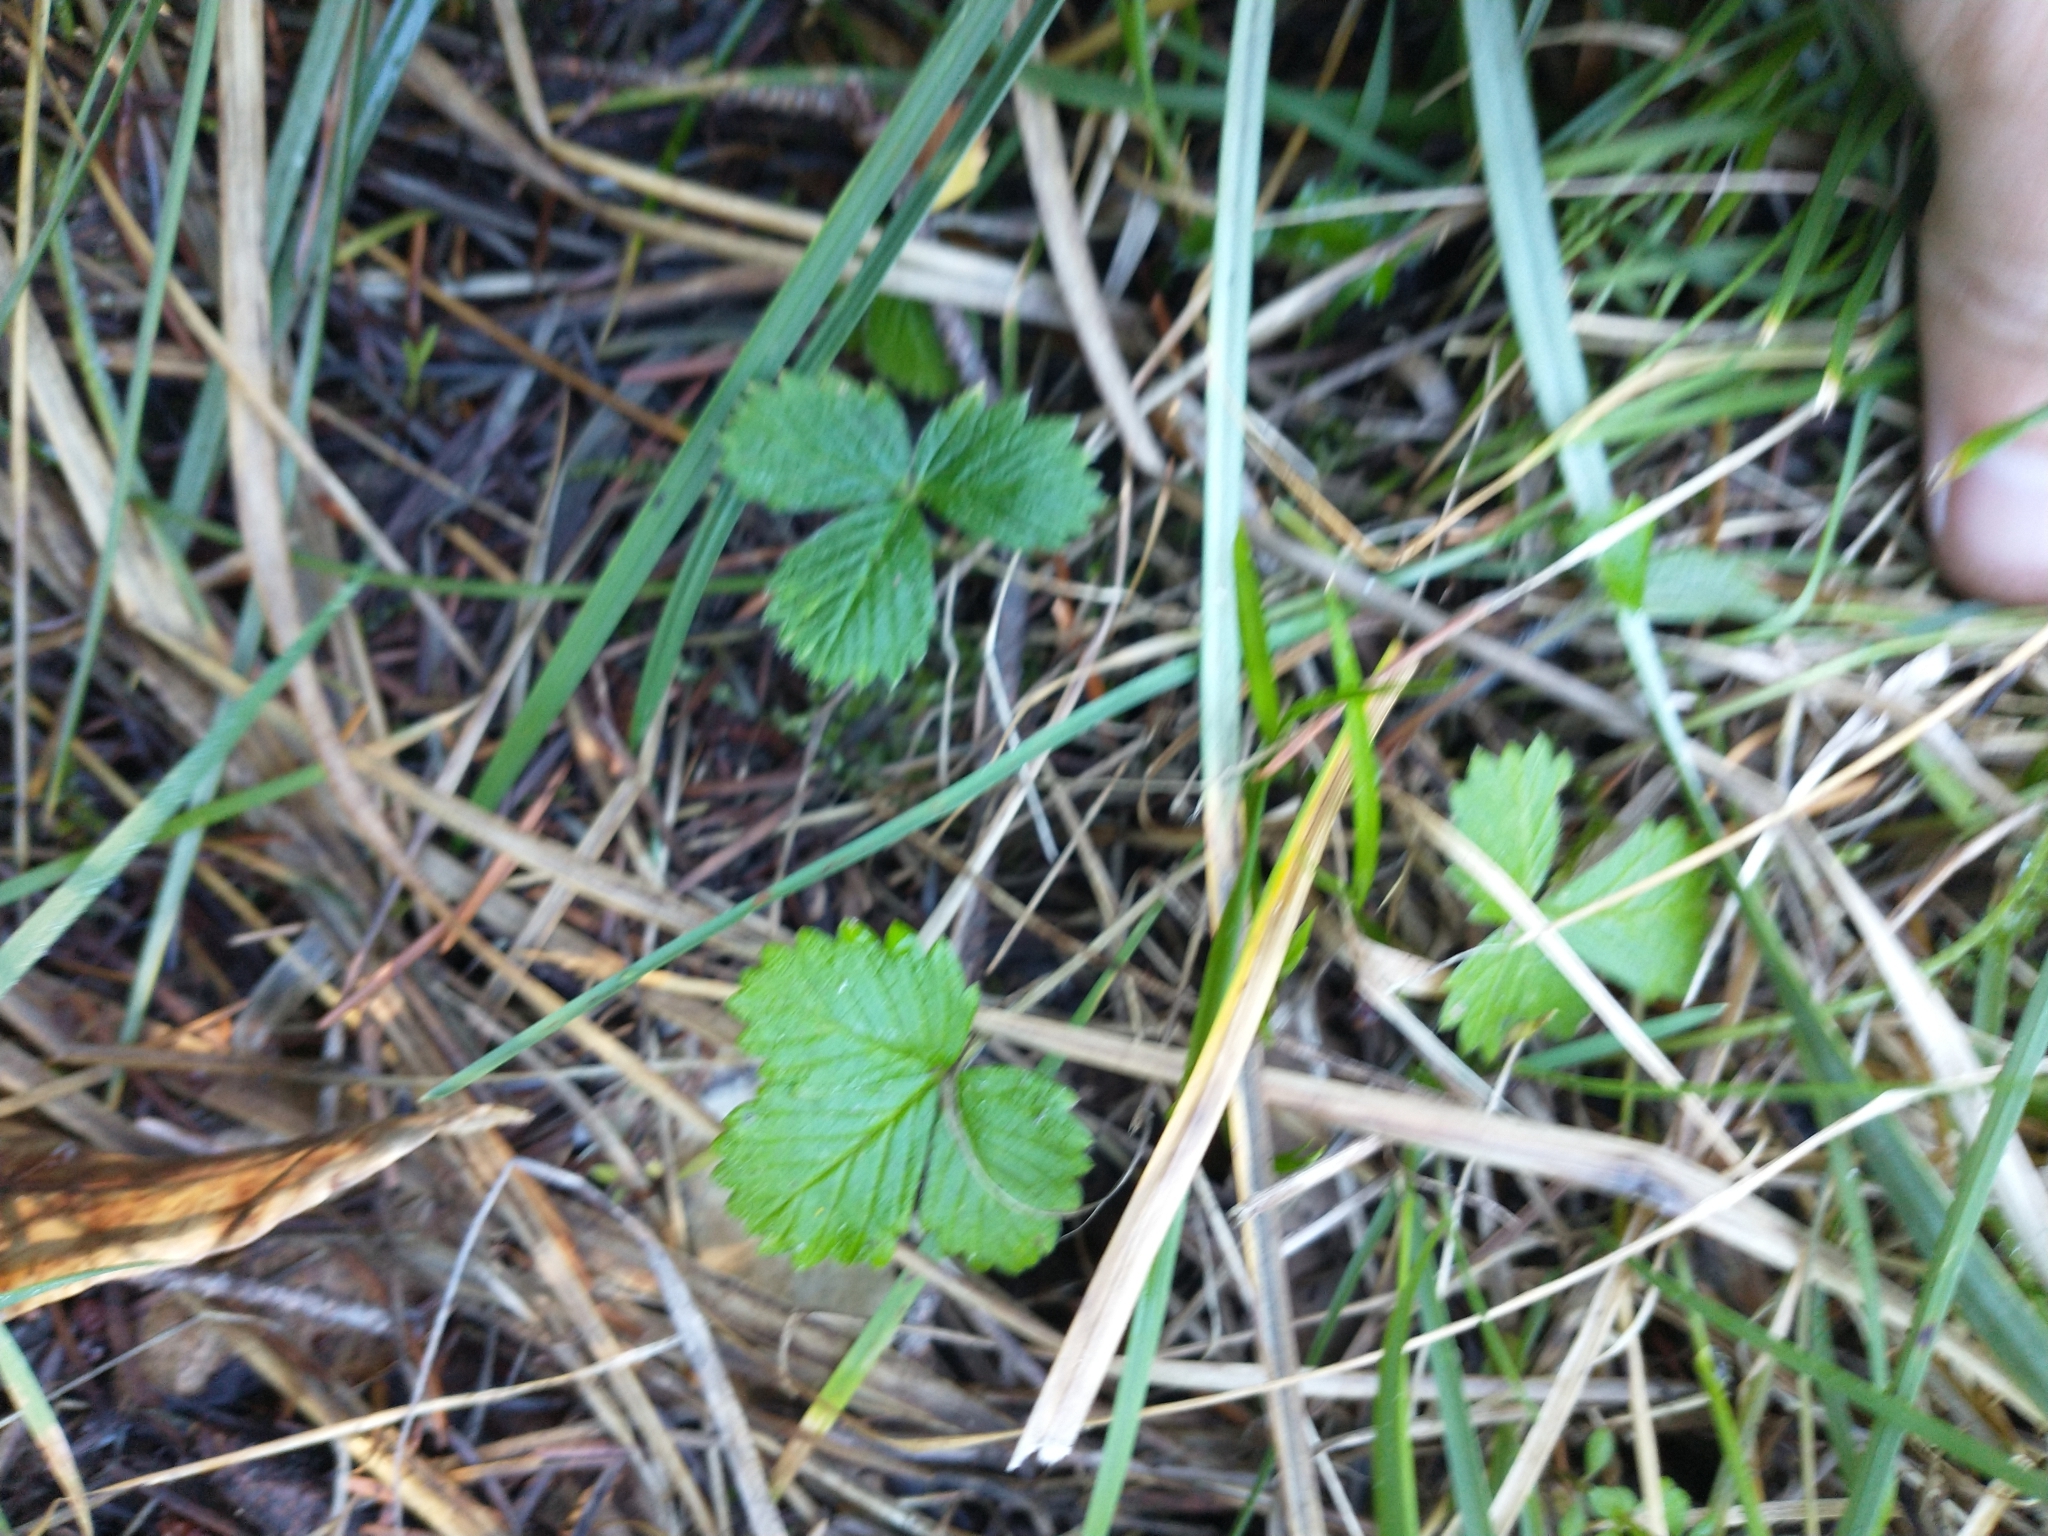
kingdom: Plantae
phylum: Tracheophyta
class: Magnoliopsida
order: Rosales
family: Rosaceae
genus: Fragaria
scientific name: Fragaria vesca
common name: Wild strawberry
